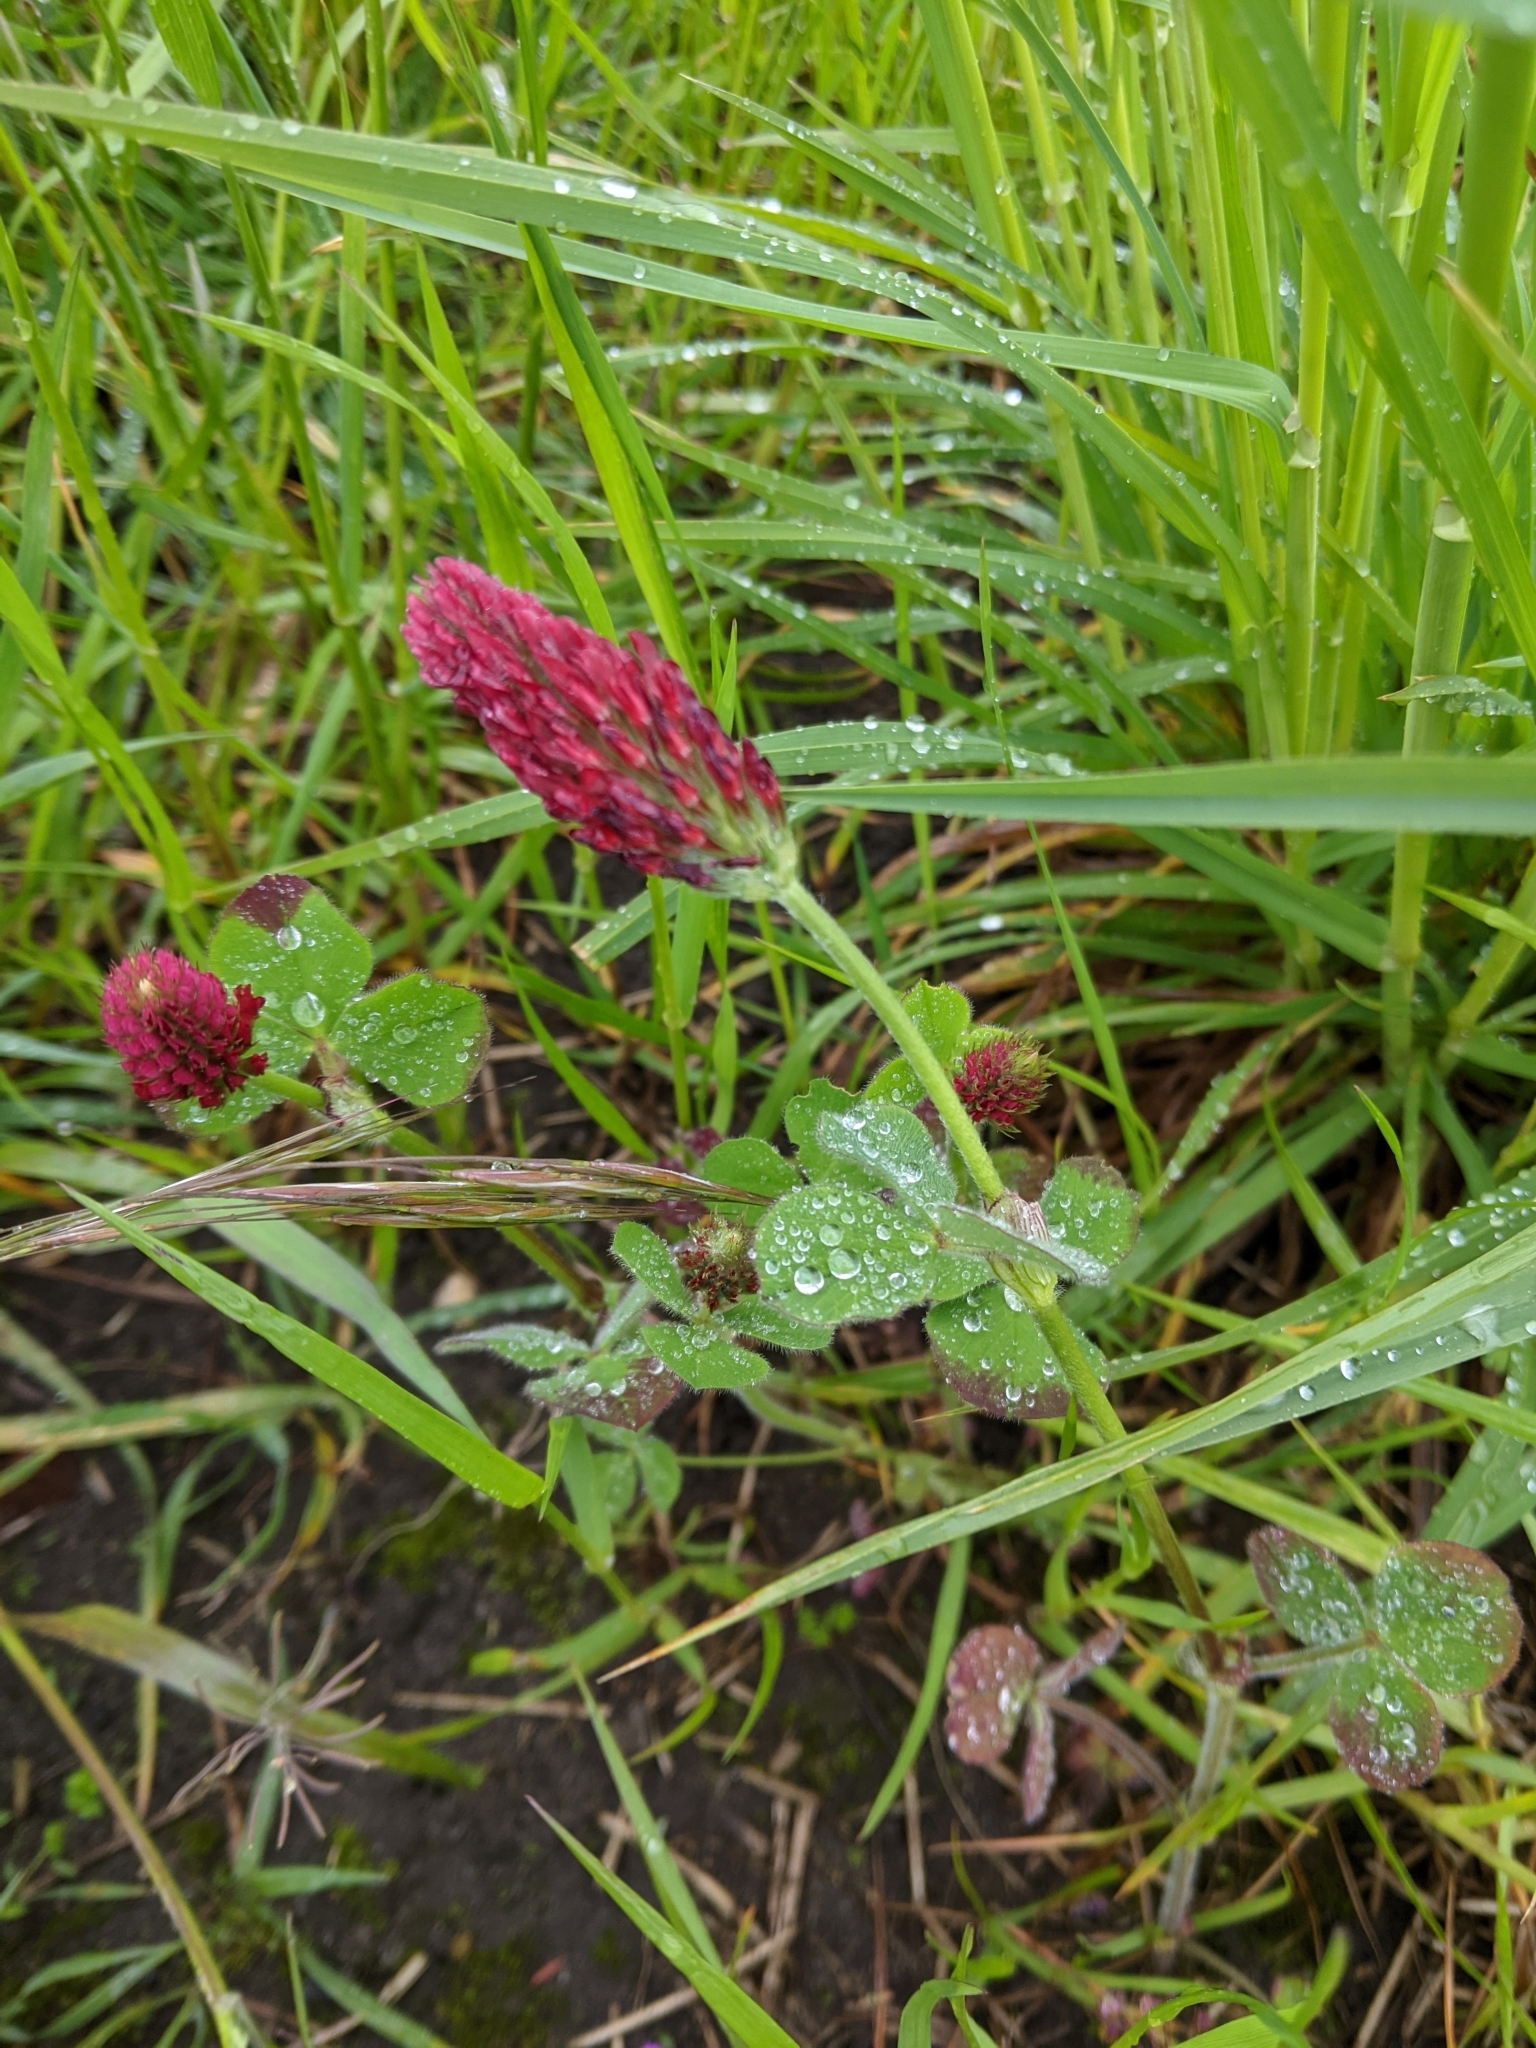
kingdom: Plantae
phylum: Tracheophyta
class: Magnoliopsida
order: Fabales
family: Fabaceae
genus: Trifolium
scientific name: Trifolium incarnatum
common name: Crimson clover
